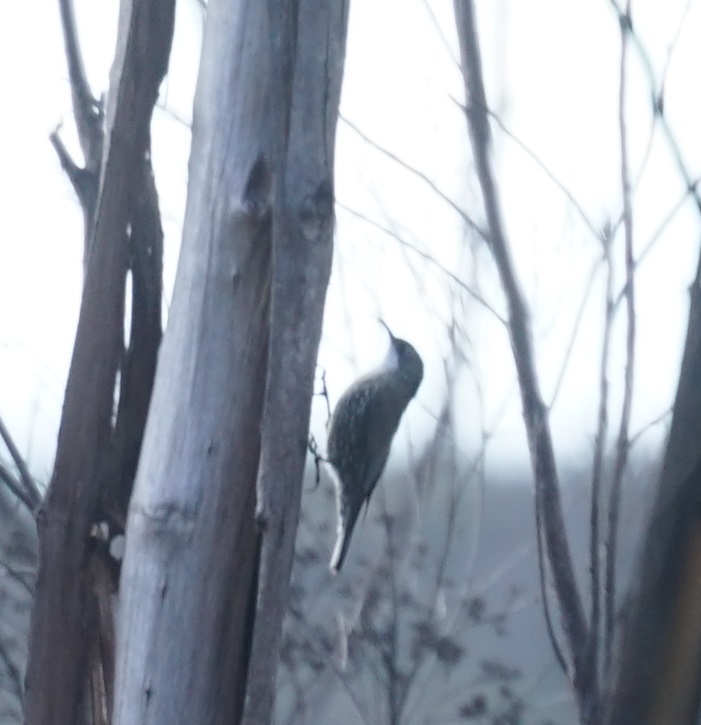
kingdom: Animalia
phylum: Chordata
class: Aves
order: Passeriformes
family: Climacteridae
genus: Cormobates
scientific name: Cormobates leucophaea
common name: White-throated treecreeper
